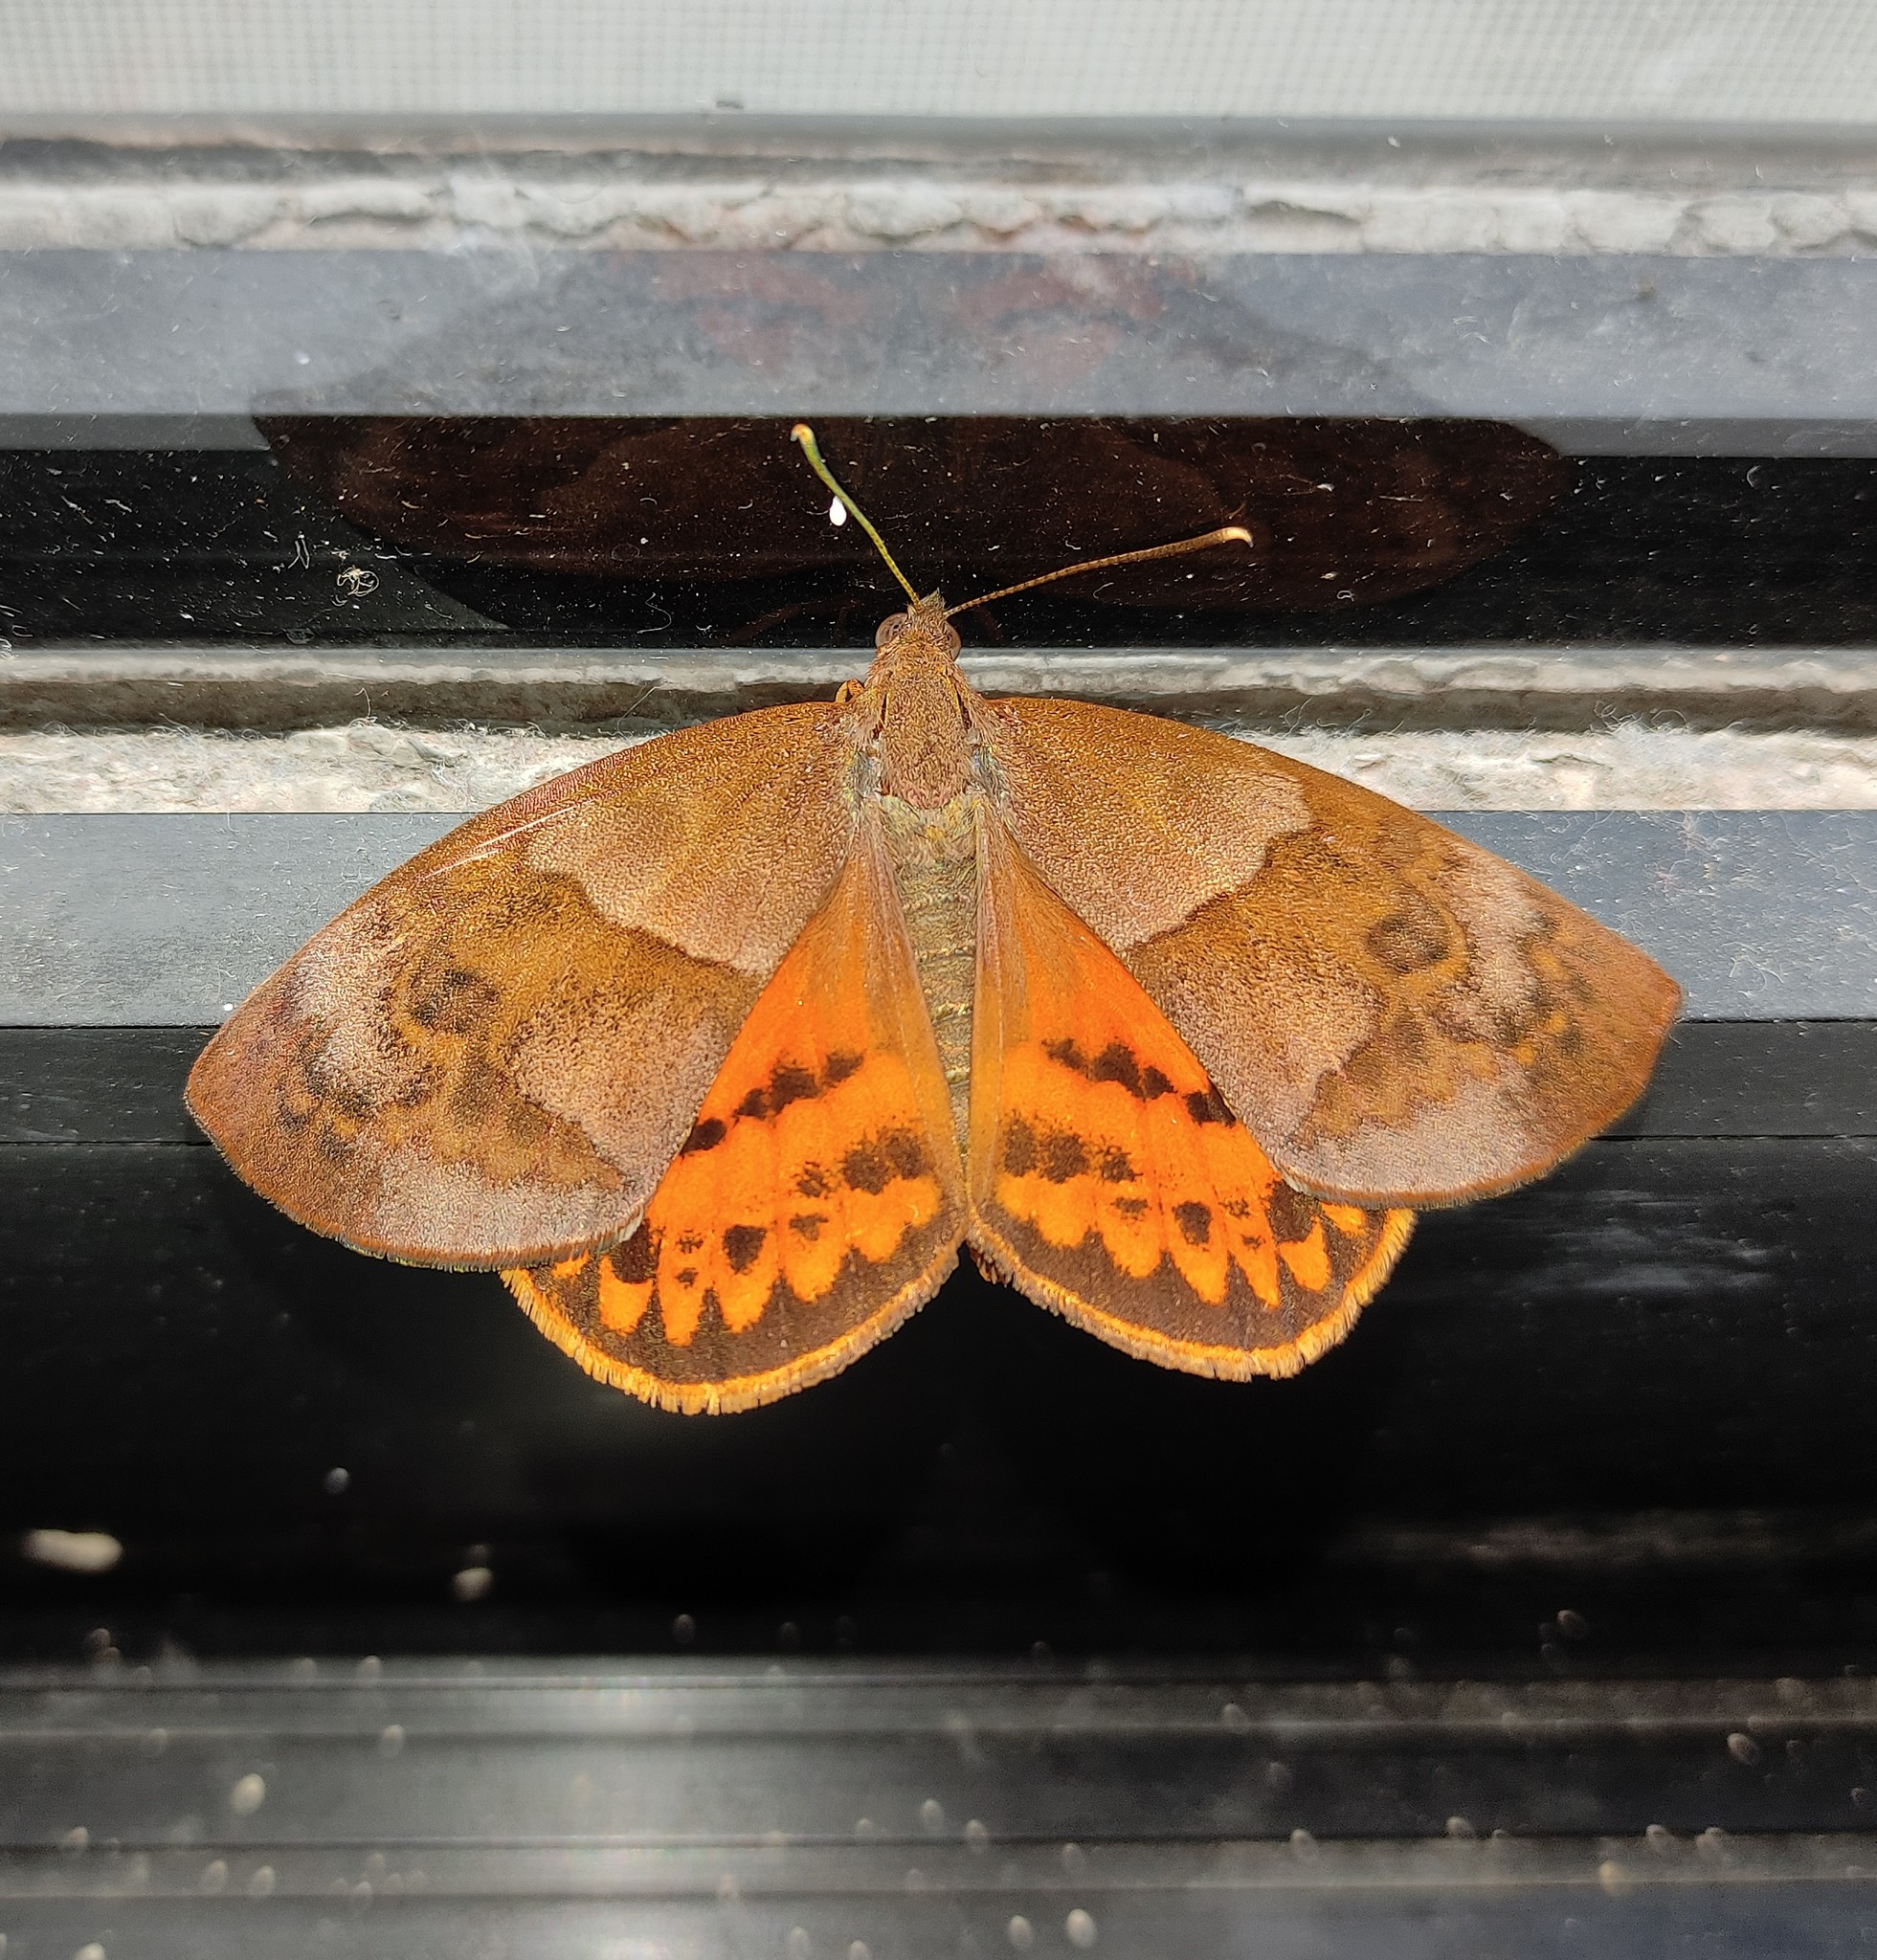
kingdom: Animalia
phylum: Arthropoda
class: Insecta
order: Lepidoptera
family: Castniidae
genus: Ceretes
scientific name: Ceretes marcellserres
